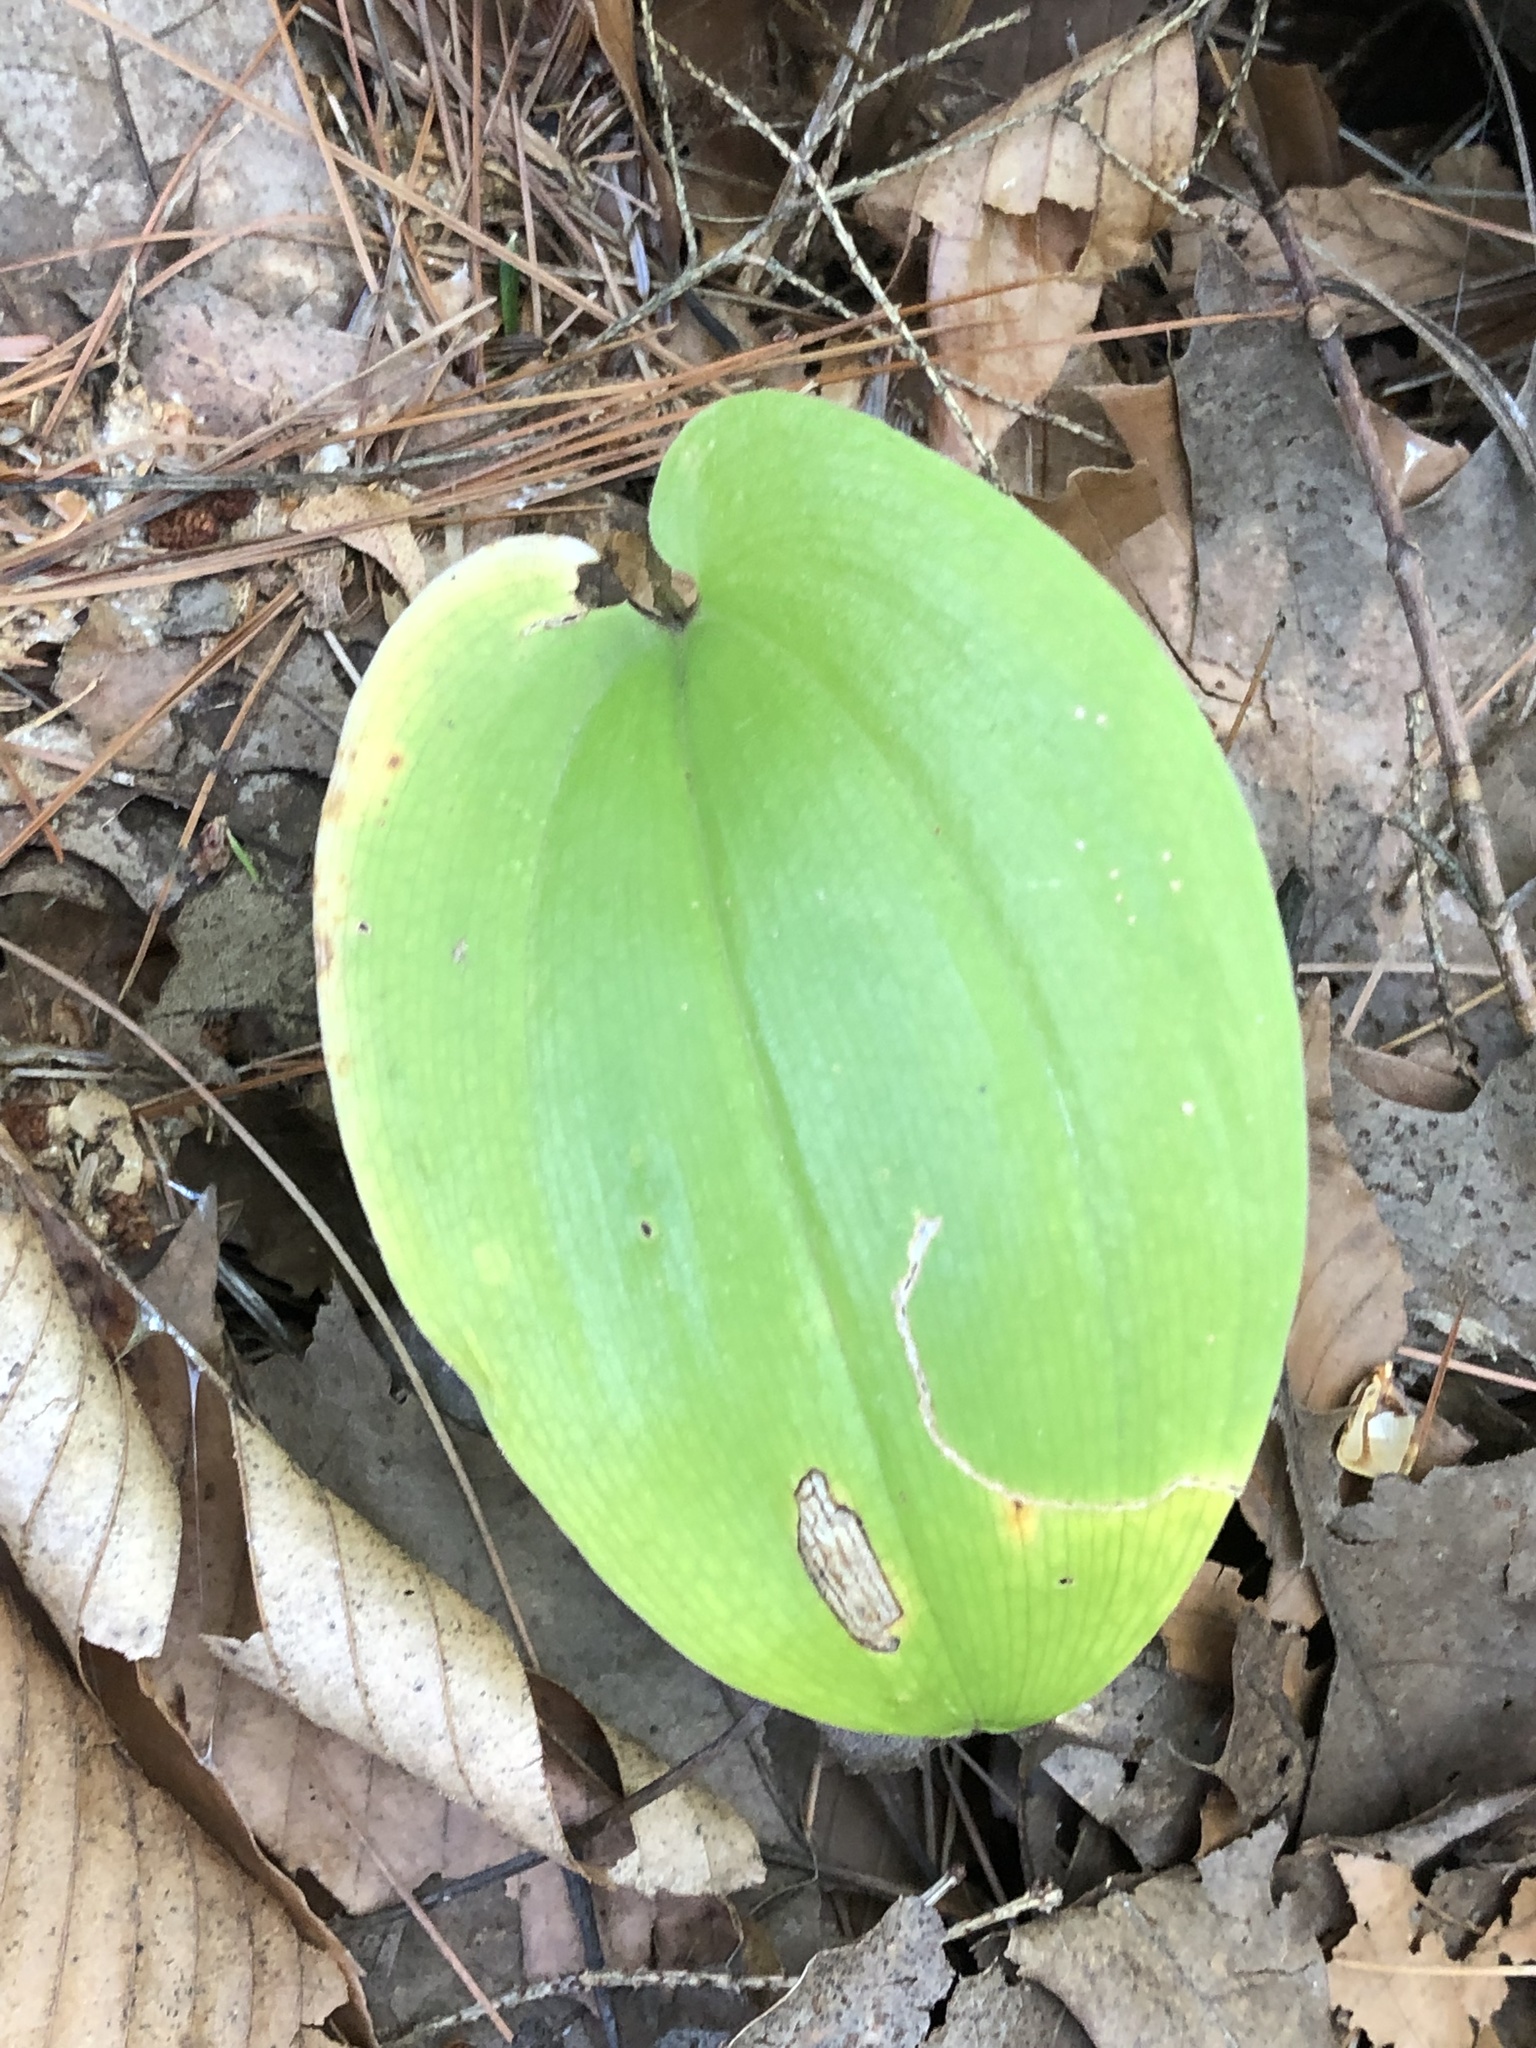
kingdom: Plantae
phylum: Tracheophyta
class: Liliopsida
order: Asparagales
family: Asparagaceae
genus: Maianthemum
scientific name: Maianthemum canadense
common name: False lily-of-the-valley
